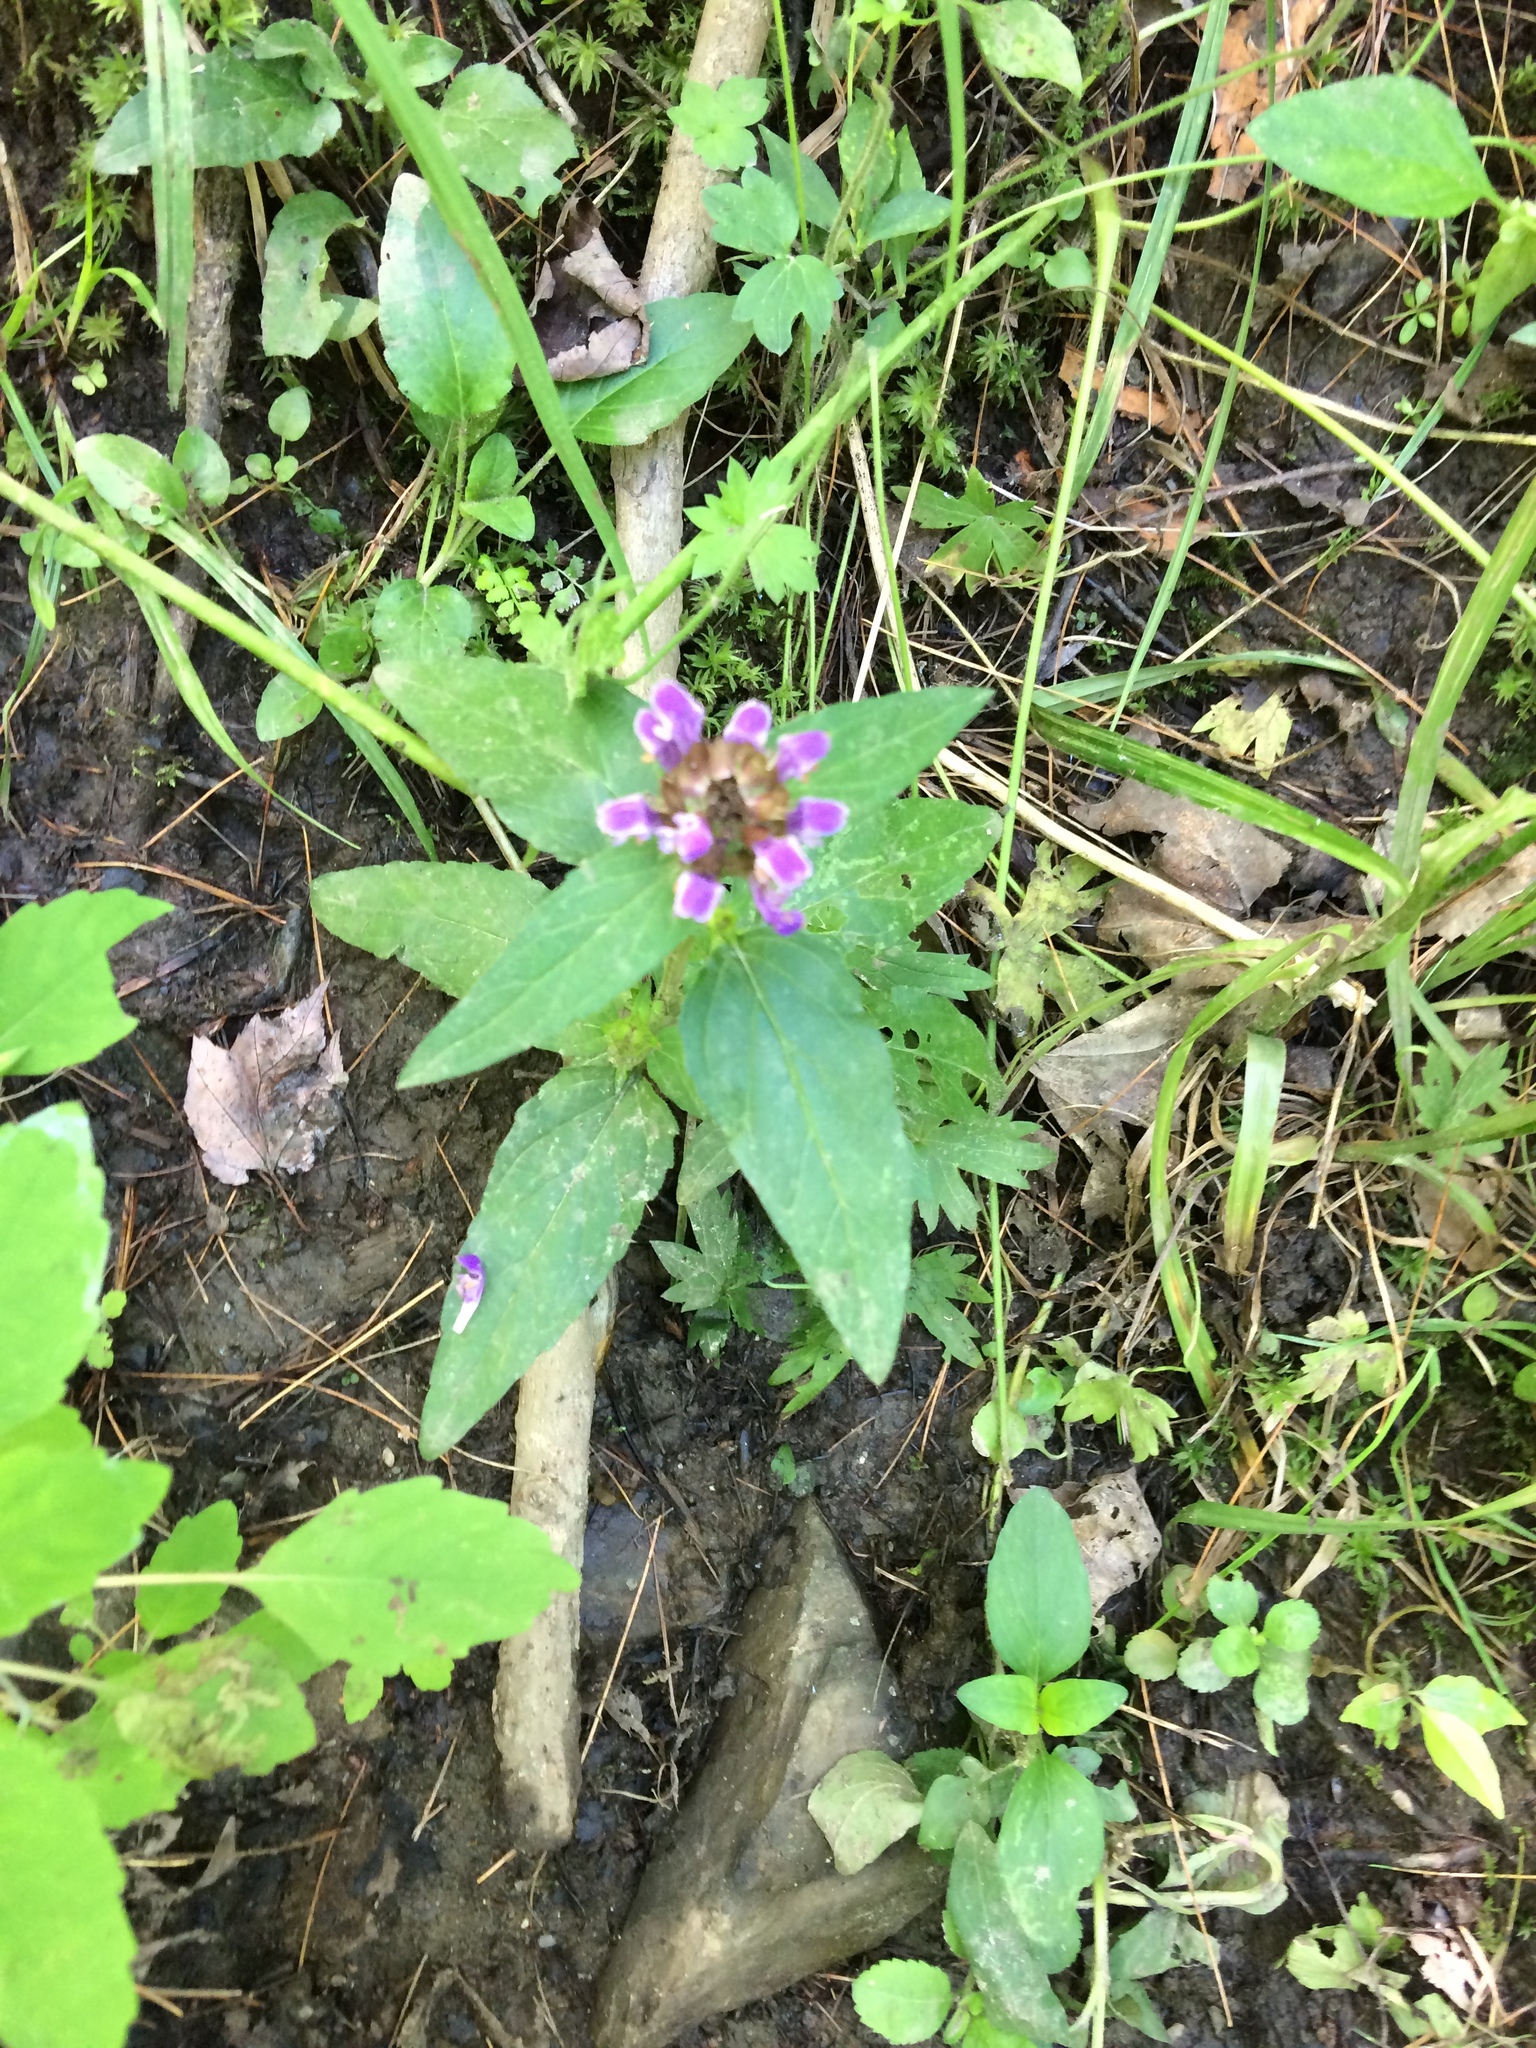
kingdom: Plantae
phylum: Tracheophyta
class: Magnoliopsida
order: Lamiales
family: Lamiaceae
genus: Prunella
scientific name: Prunella vulgaris
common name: Heal-all
